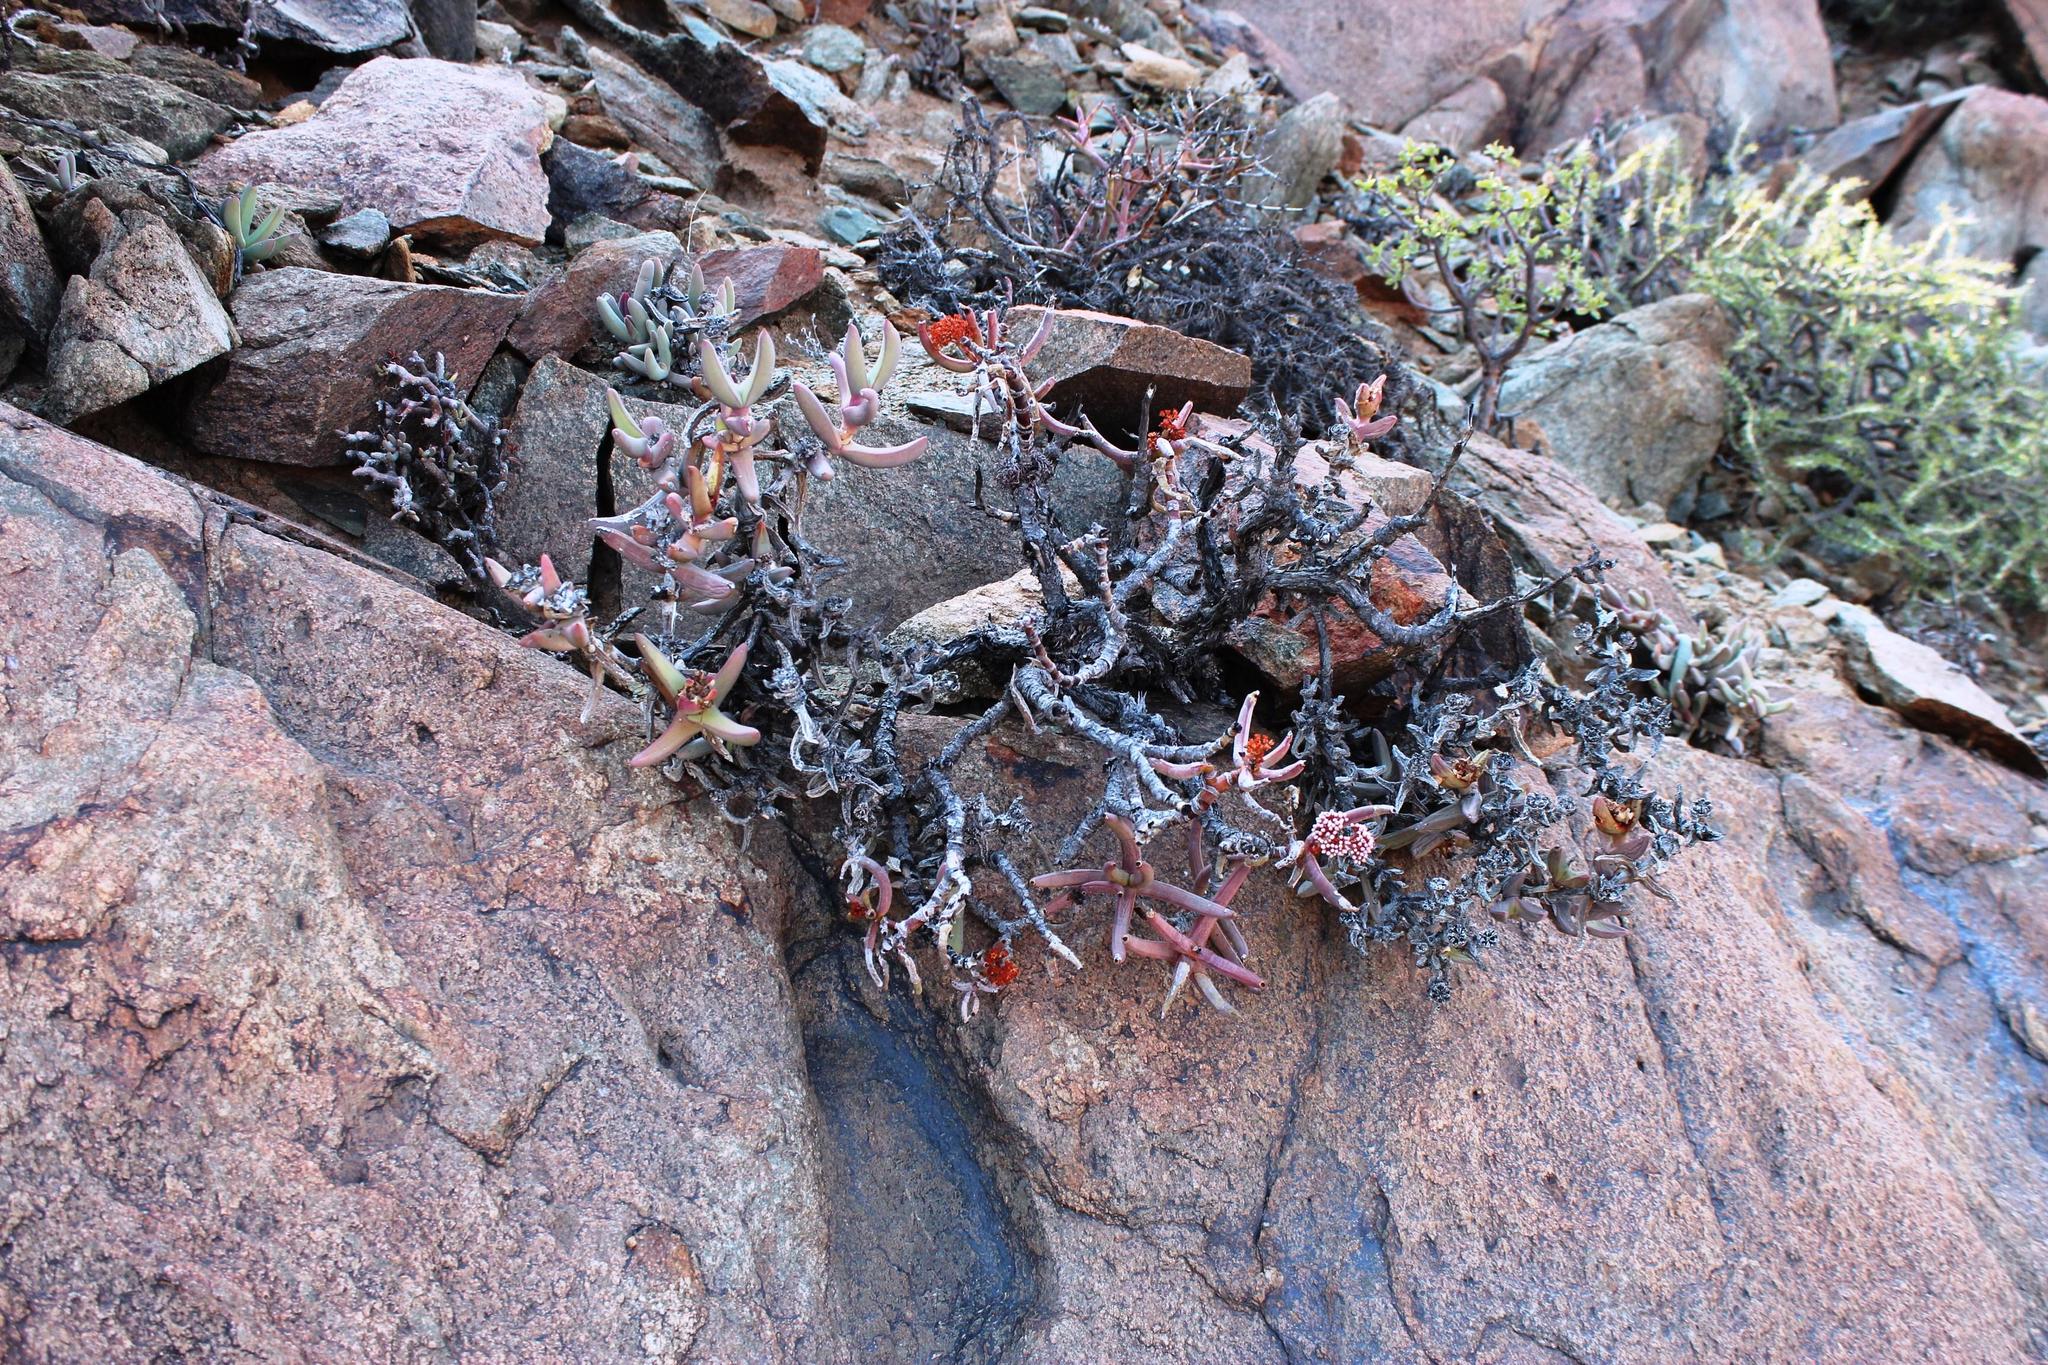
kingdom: Plantae
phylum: Tracheophyta
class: Magnoliopsida
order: Saxifragales
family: Crassulaceae
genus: Crassula
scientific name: Crassula macowaniana
